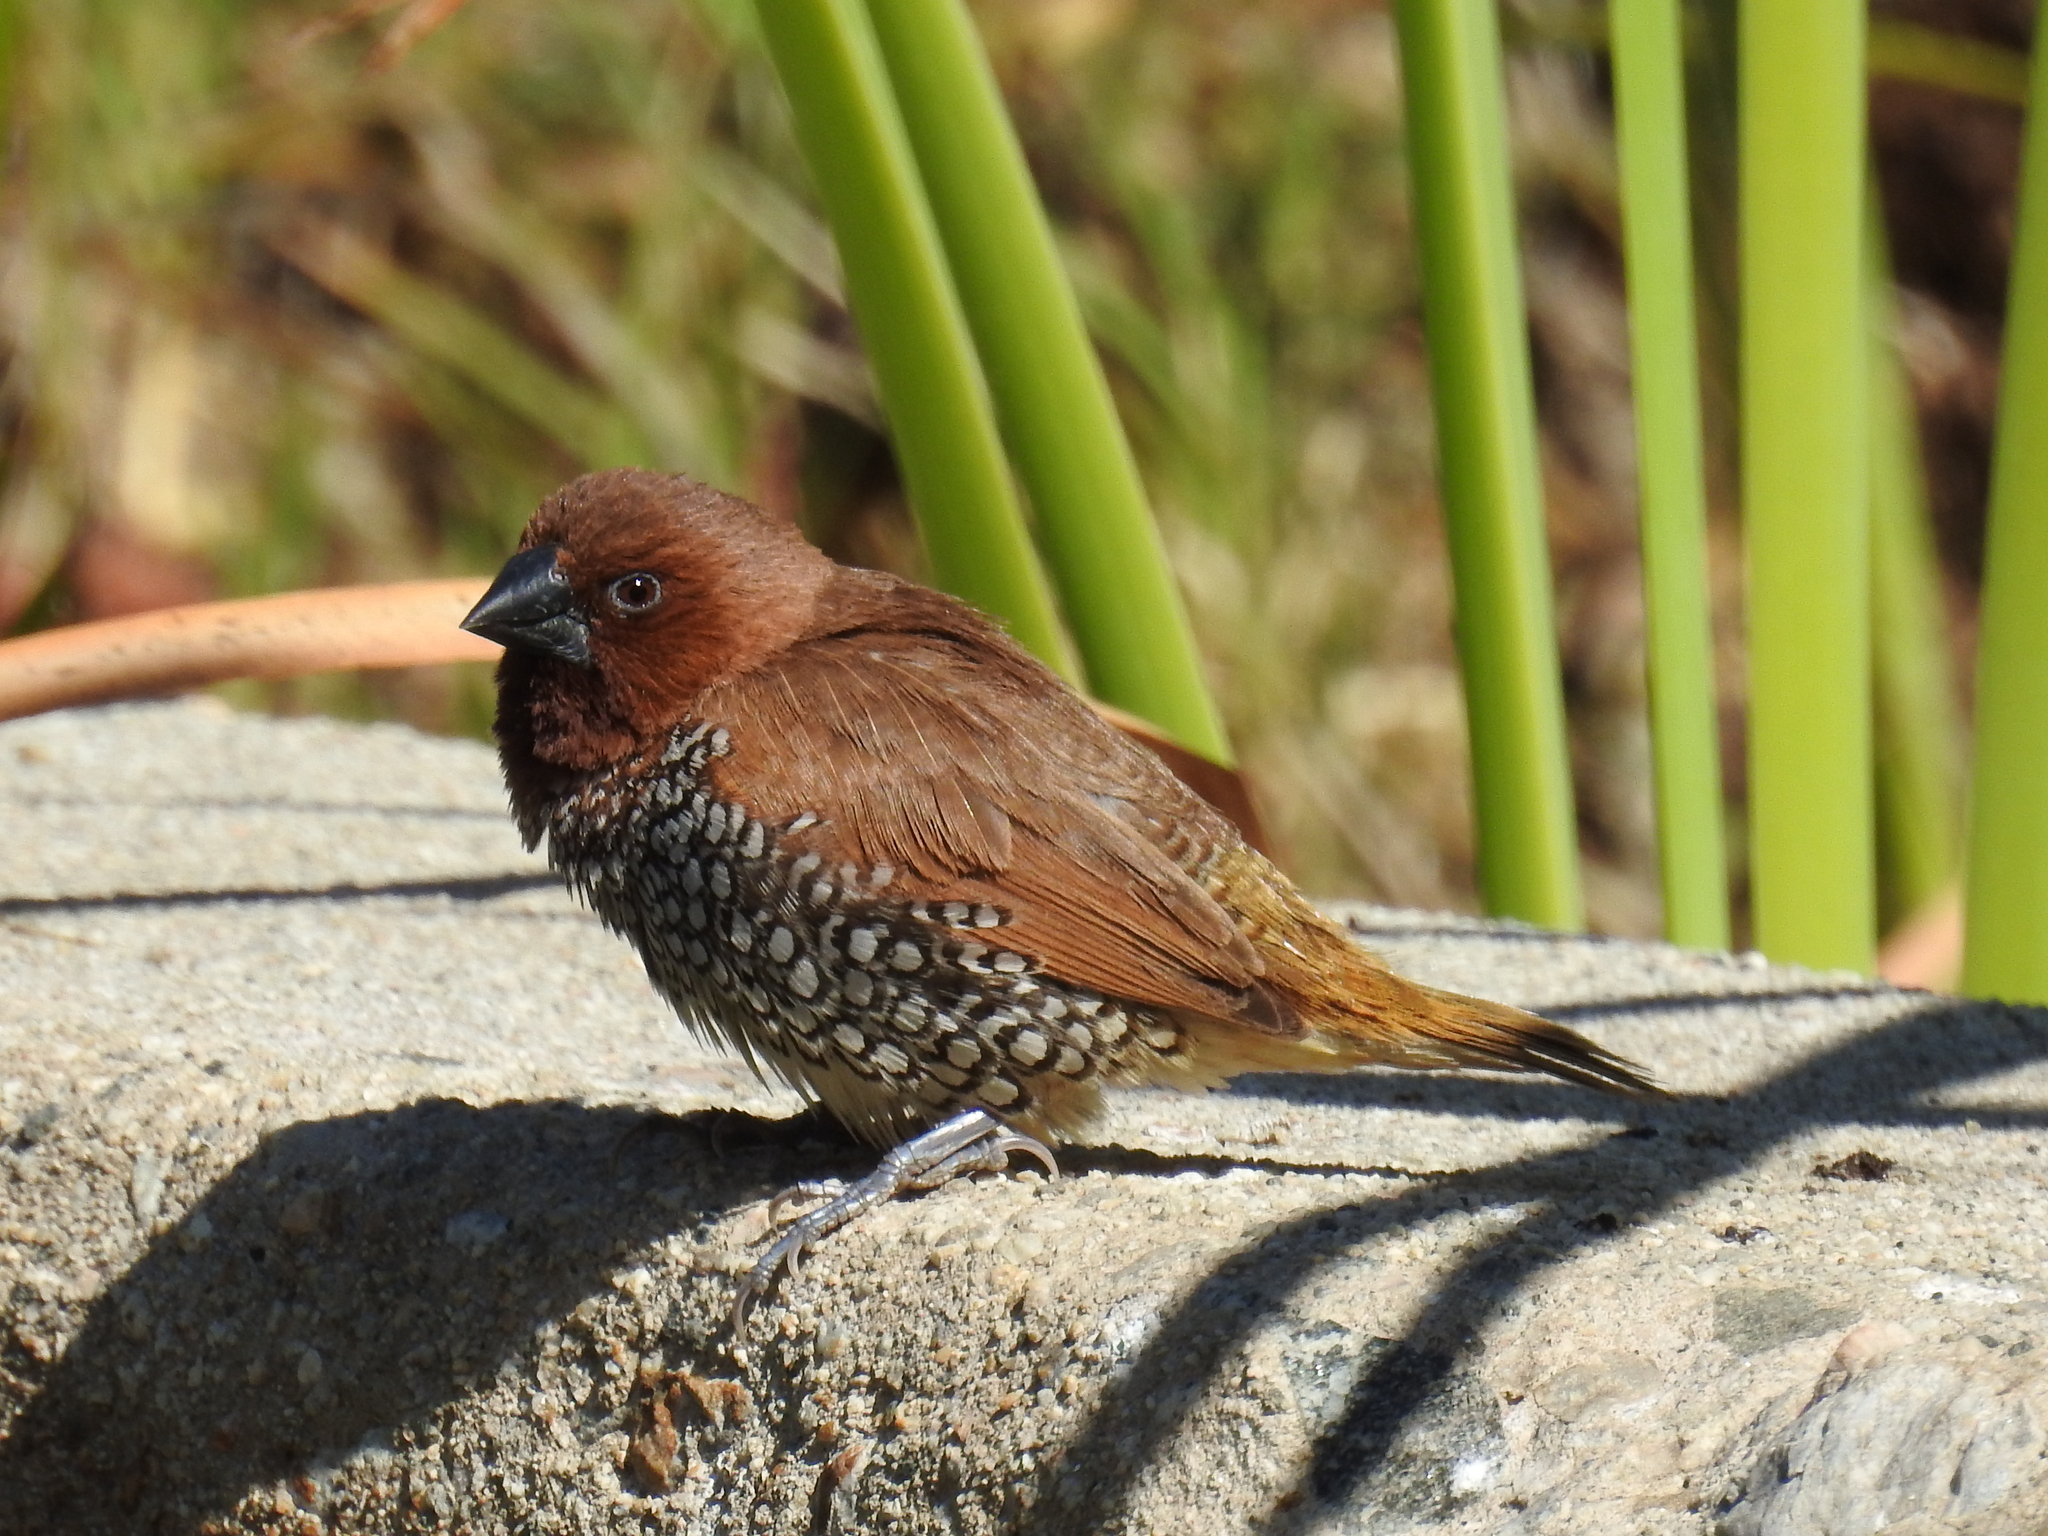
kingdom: Animalia
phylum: Chordata
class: Aves
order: Passeriformes
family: Estrildidae
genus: Lonchura
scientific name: Lonchura punctulata
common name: Scaly-breasted munia
